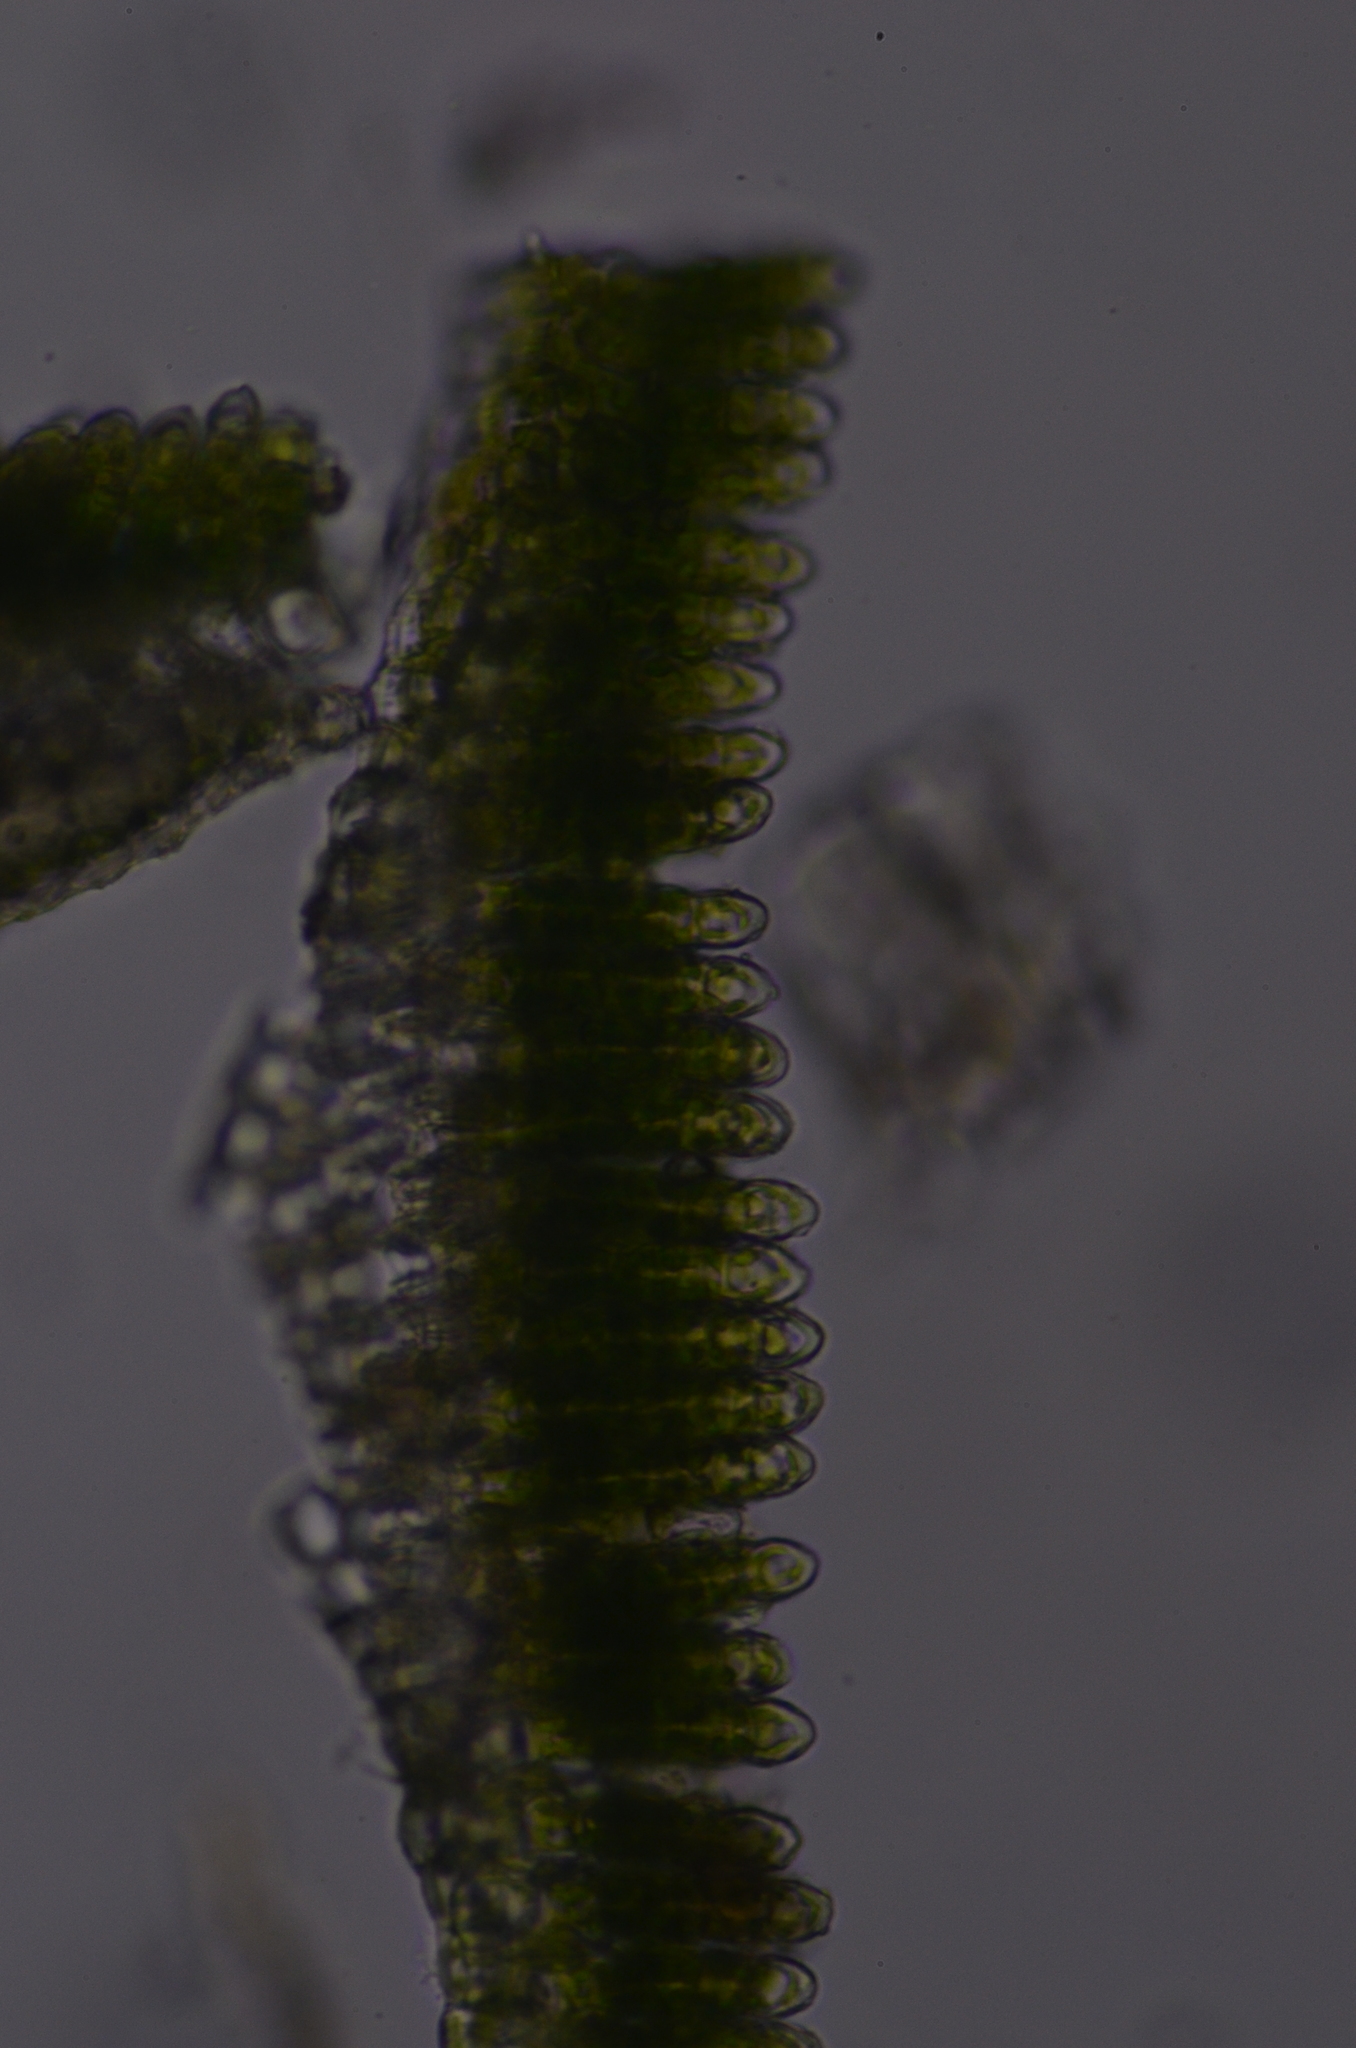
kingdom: Plantae
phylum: Bryophyta
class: Polytrichopsida
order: Polytrichales
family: Polytrichaceae
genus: Polytrichum
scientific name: Polytrichum formosum
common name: Bank haircap moss
